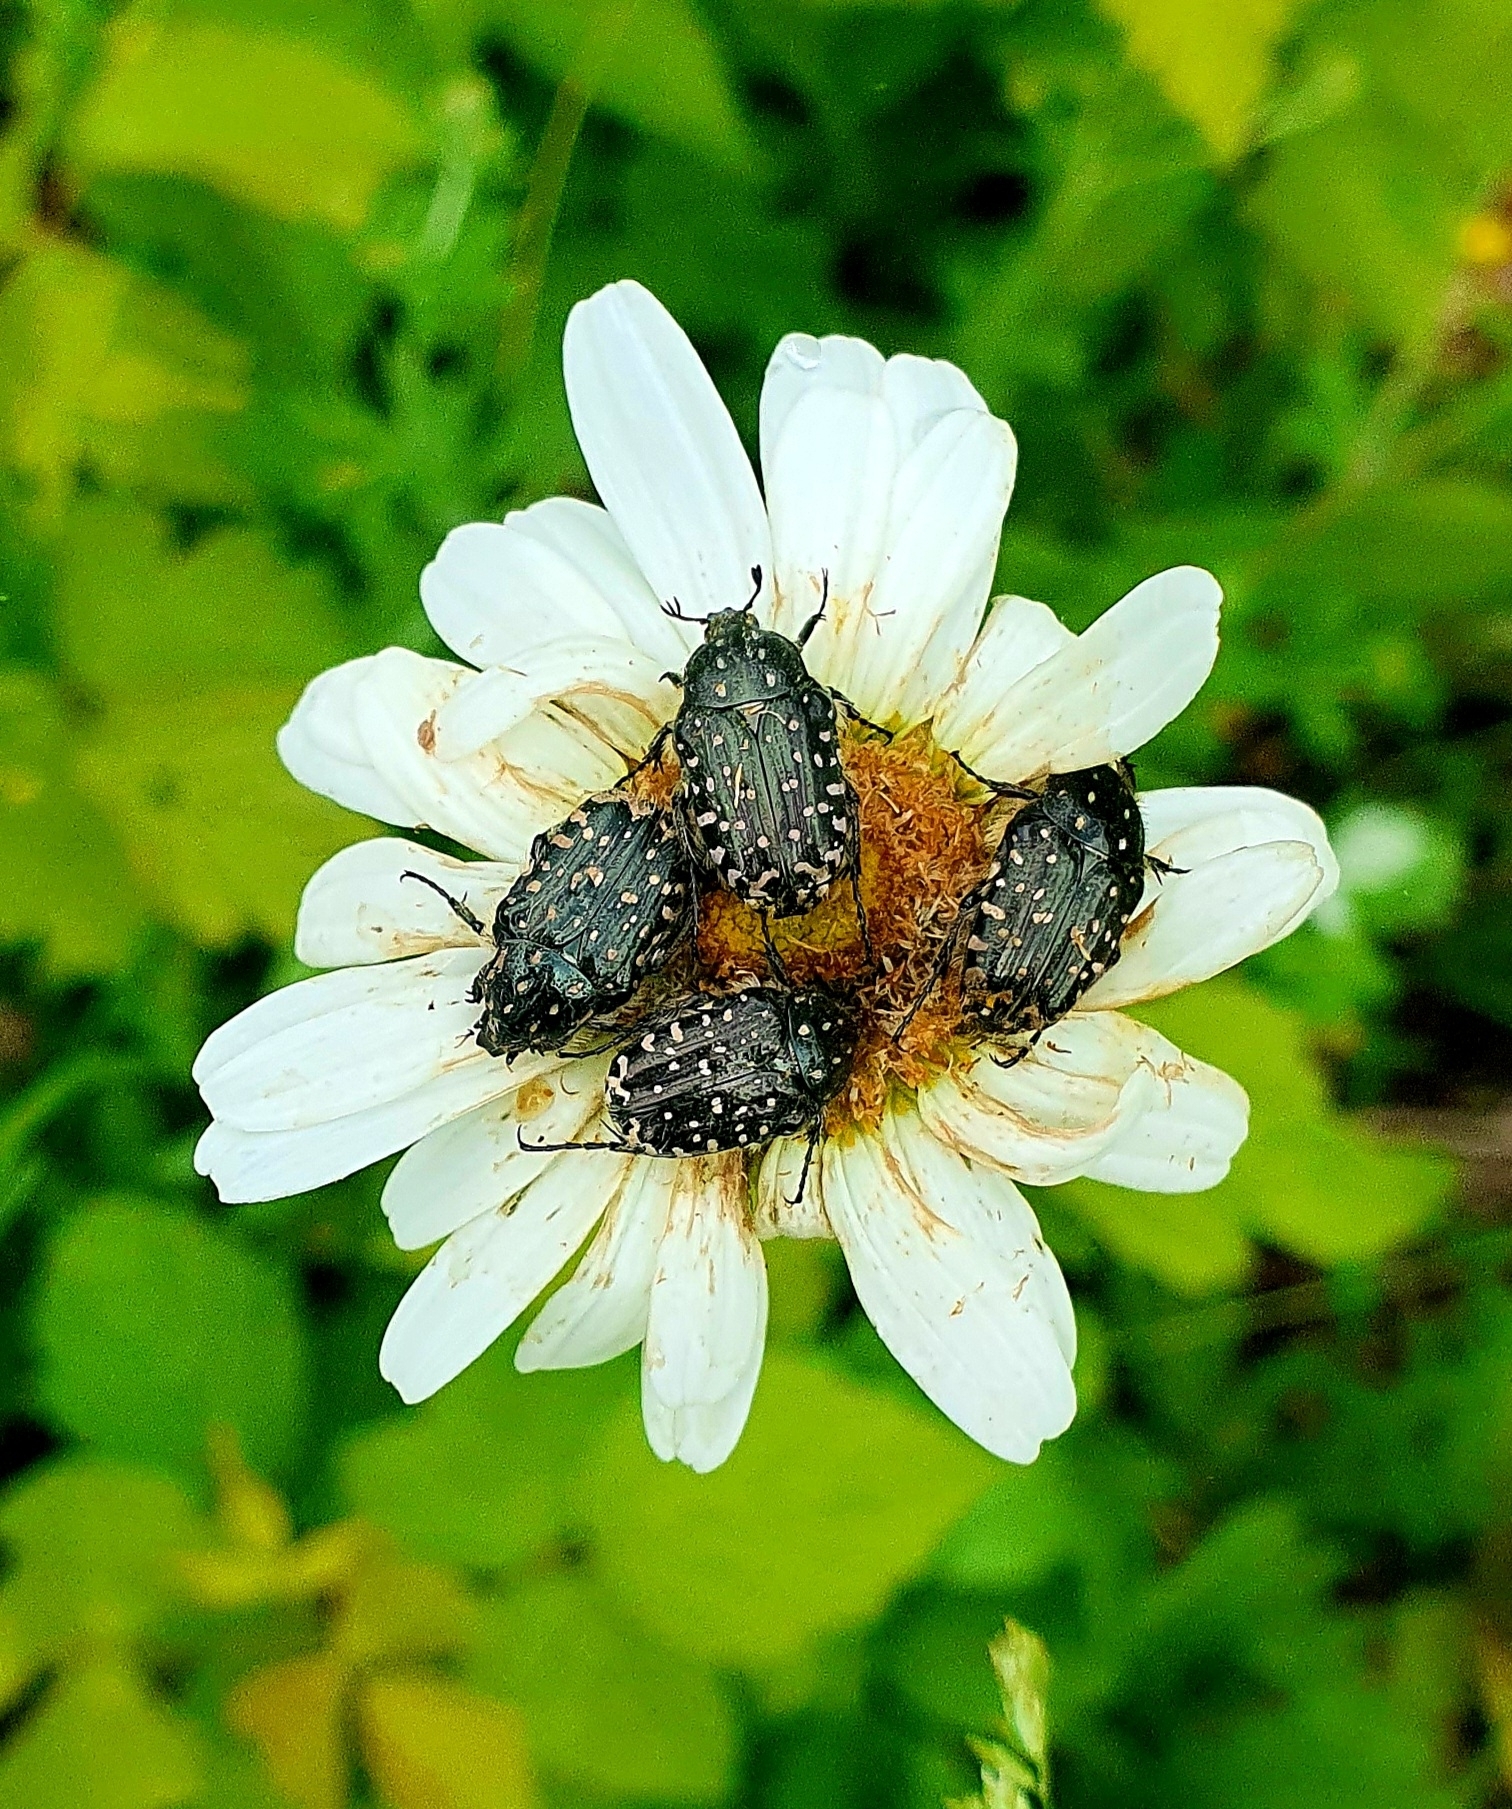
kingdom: Animalia
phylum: Arthropoda
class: Insecta
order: Coleoptera
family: Scarabaeidae
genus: Oxythyrea
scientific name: Oxythyrea funesta
